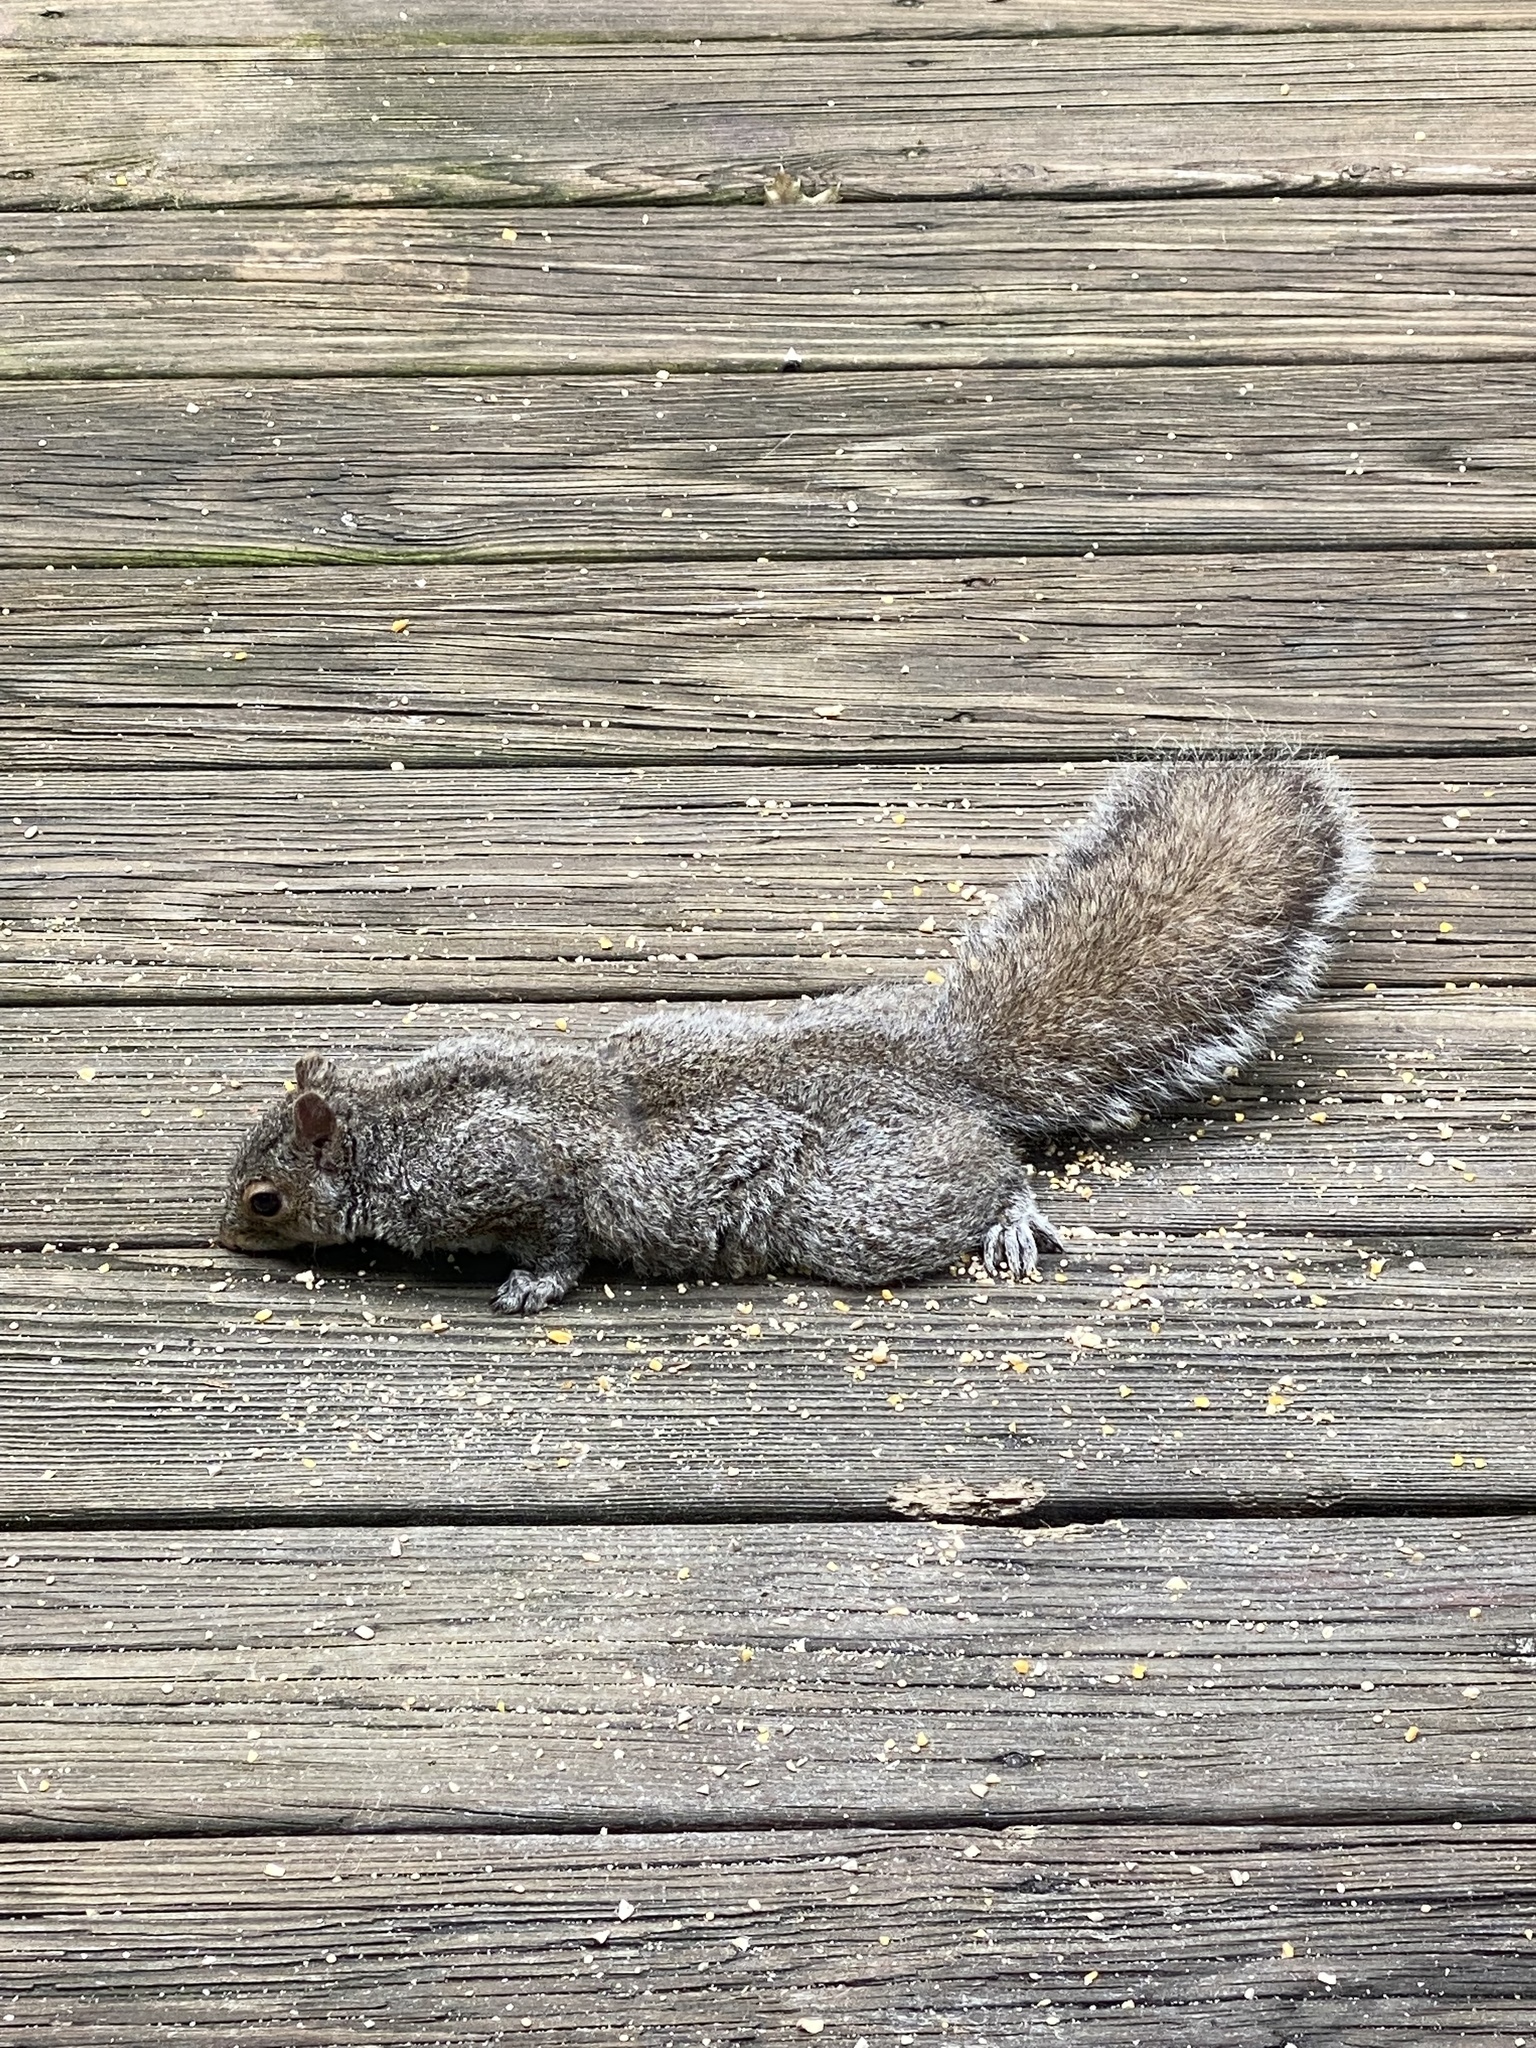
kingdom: Animalia
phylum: Chordata
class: Mammalia
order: Rodentia
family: Sciuridae
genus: Sciurus
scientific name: Sciurus carolinensis
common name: Eastern gray squirrel
